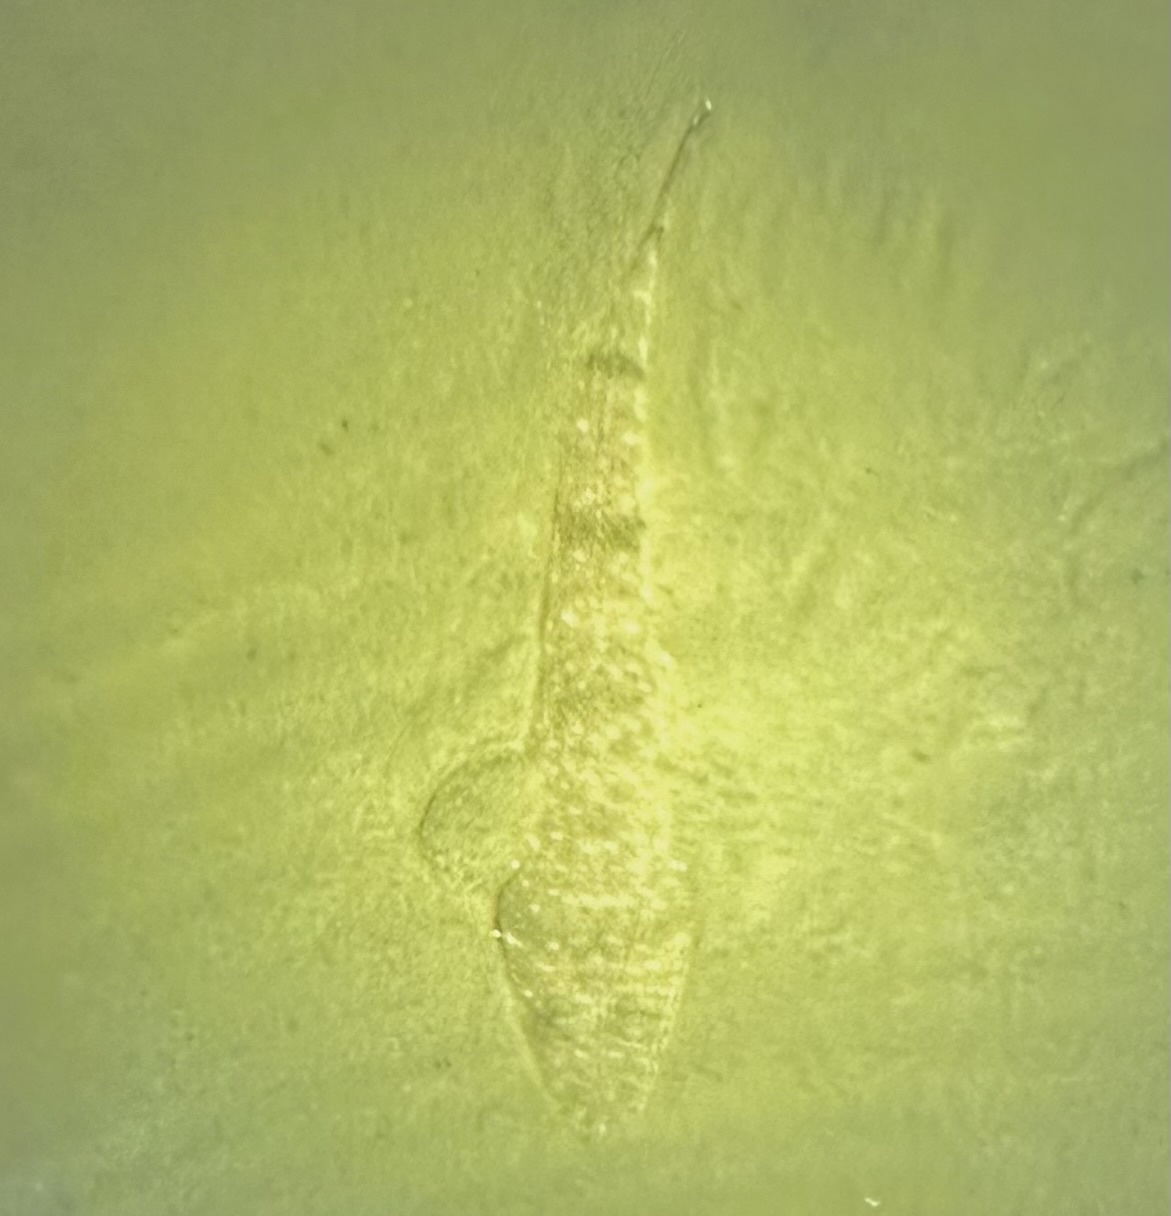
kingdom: Animalia
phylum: Chordata
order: Scorpaeniformes
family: Platycephalidae
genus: Platycephalus
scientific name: Platycephalus fuscus
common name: Dusky flathead
